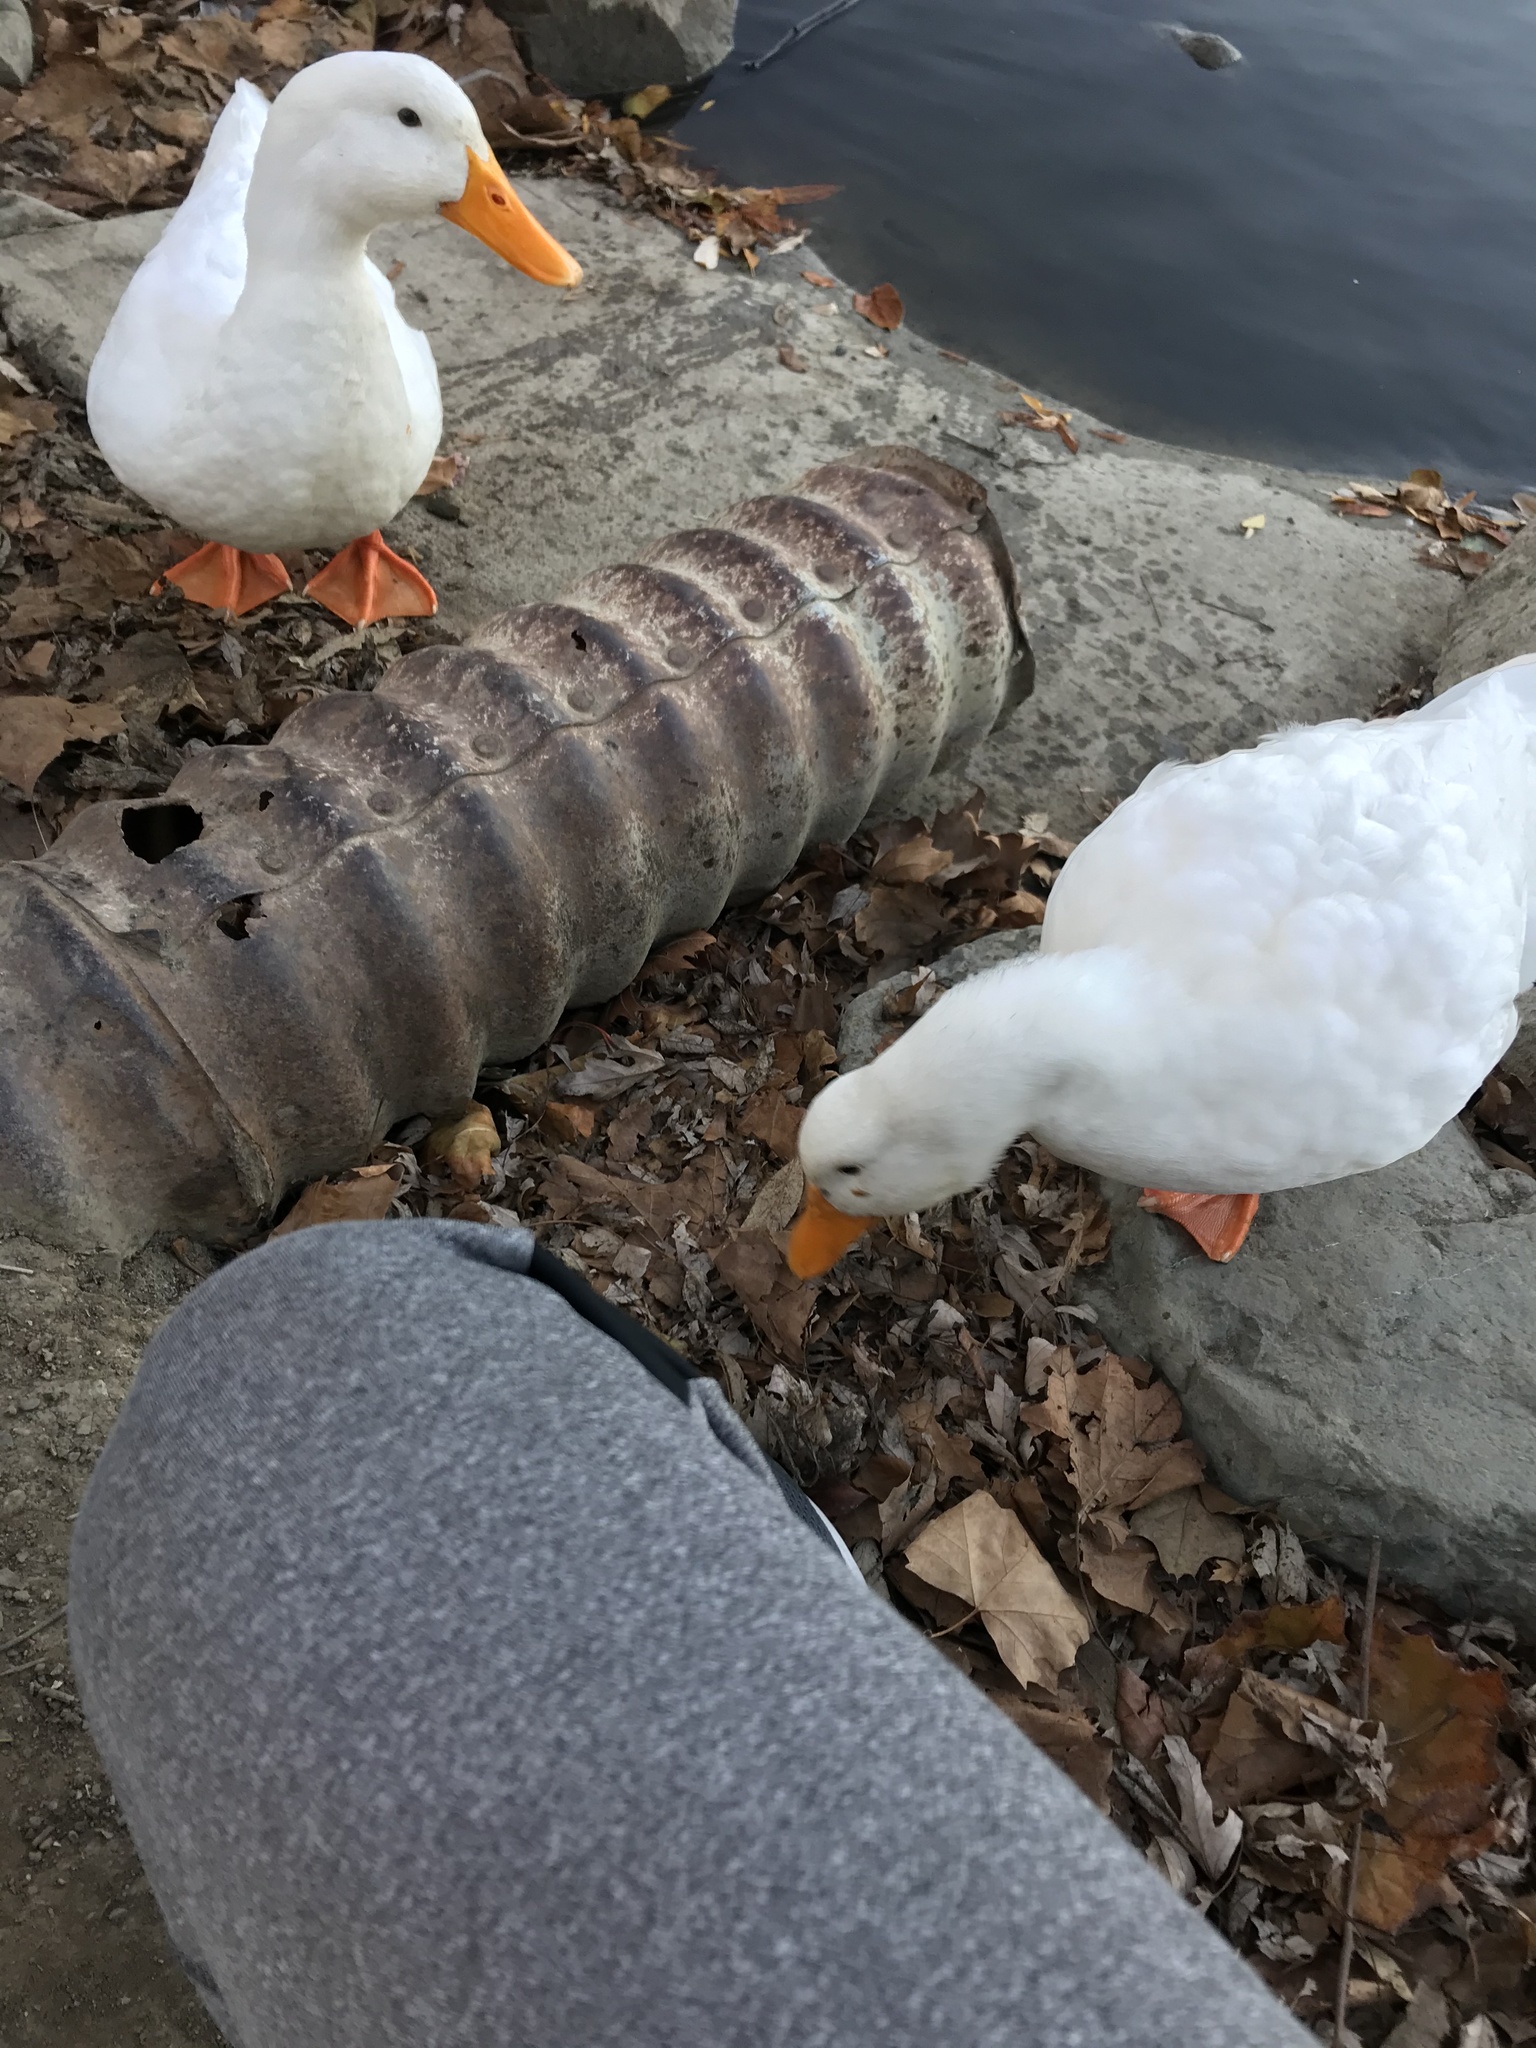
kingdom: Animalia
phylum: Chordata
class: Aves
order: Anseriformes
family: Anatidae
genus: Anas
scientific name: Anas platyrhynchos
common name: Mallard
